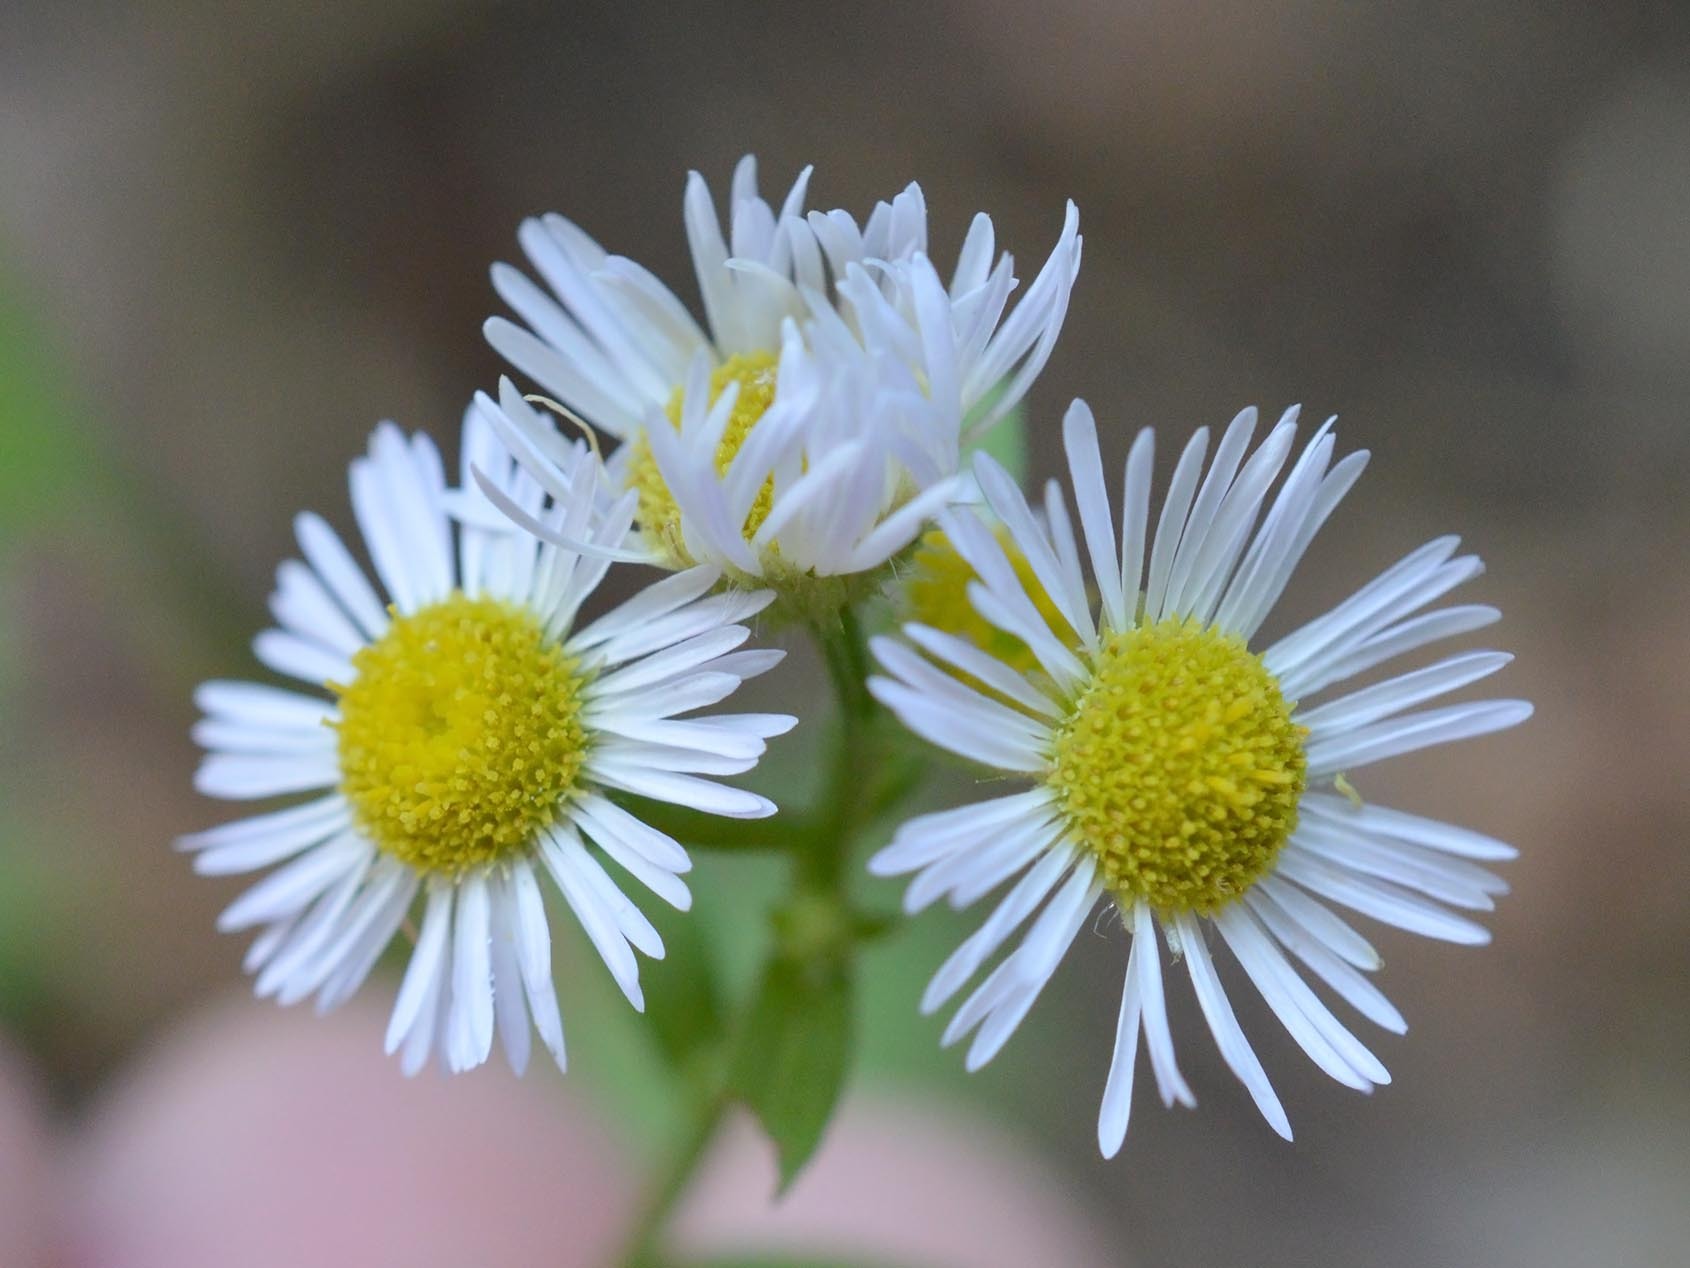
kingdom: Plantae
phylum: Tracheophyta
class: Magnoliopsida
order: Asterales
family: Asteraceae
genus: Erigeron
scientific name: Erigeron annuus
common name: Tall fleabane
